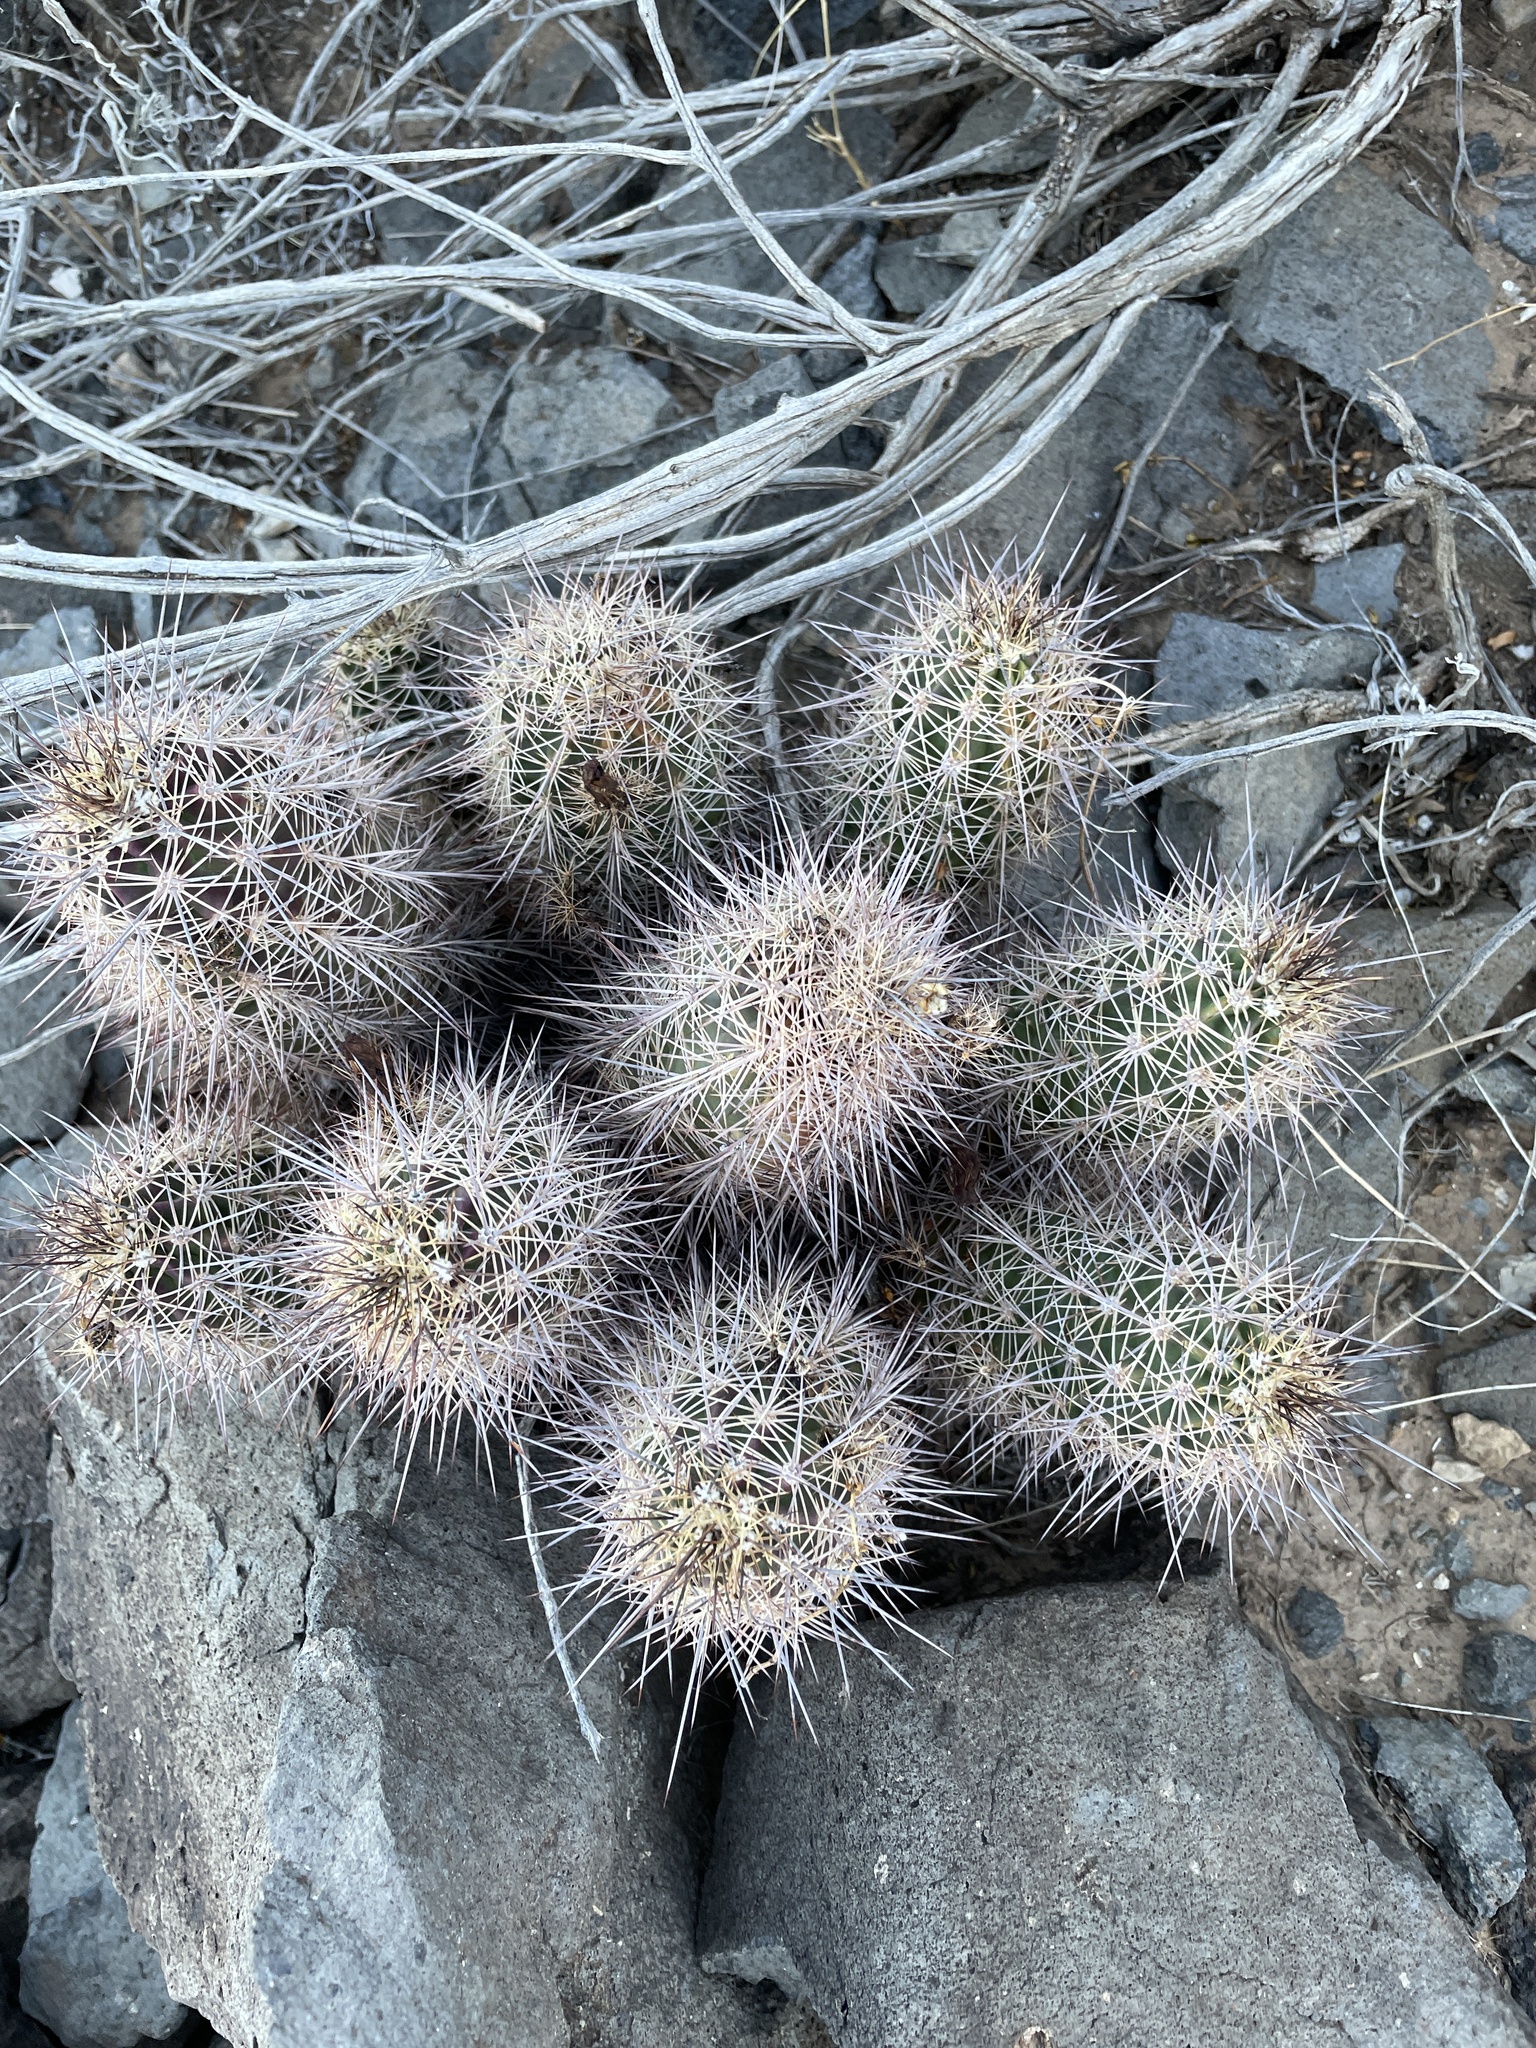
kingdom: Plantae
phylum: Tracheophyta
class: Magnoliopsida
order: Caryophyllales
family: Cactaceae
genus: Echinocereus
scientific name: Echinocereus coccineus
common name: Scarlet hedgehog cactus
